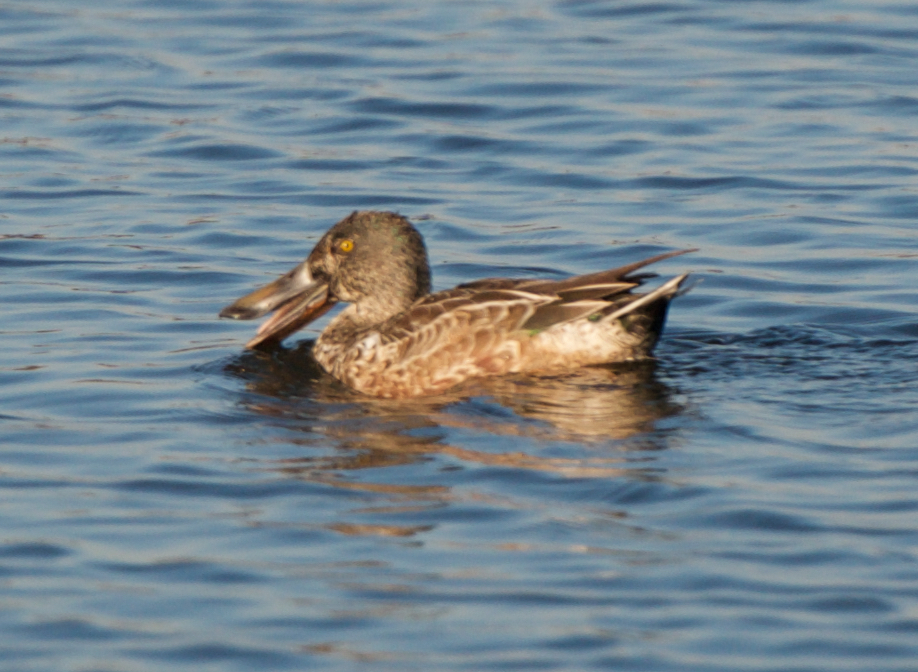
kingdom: Animalia
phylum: Chordata
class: Aves
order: Anseriformes
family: Anatidae
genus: Spatula
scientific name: Spatula clypeata
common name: Northern shoveler
